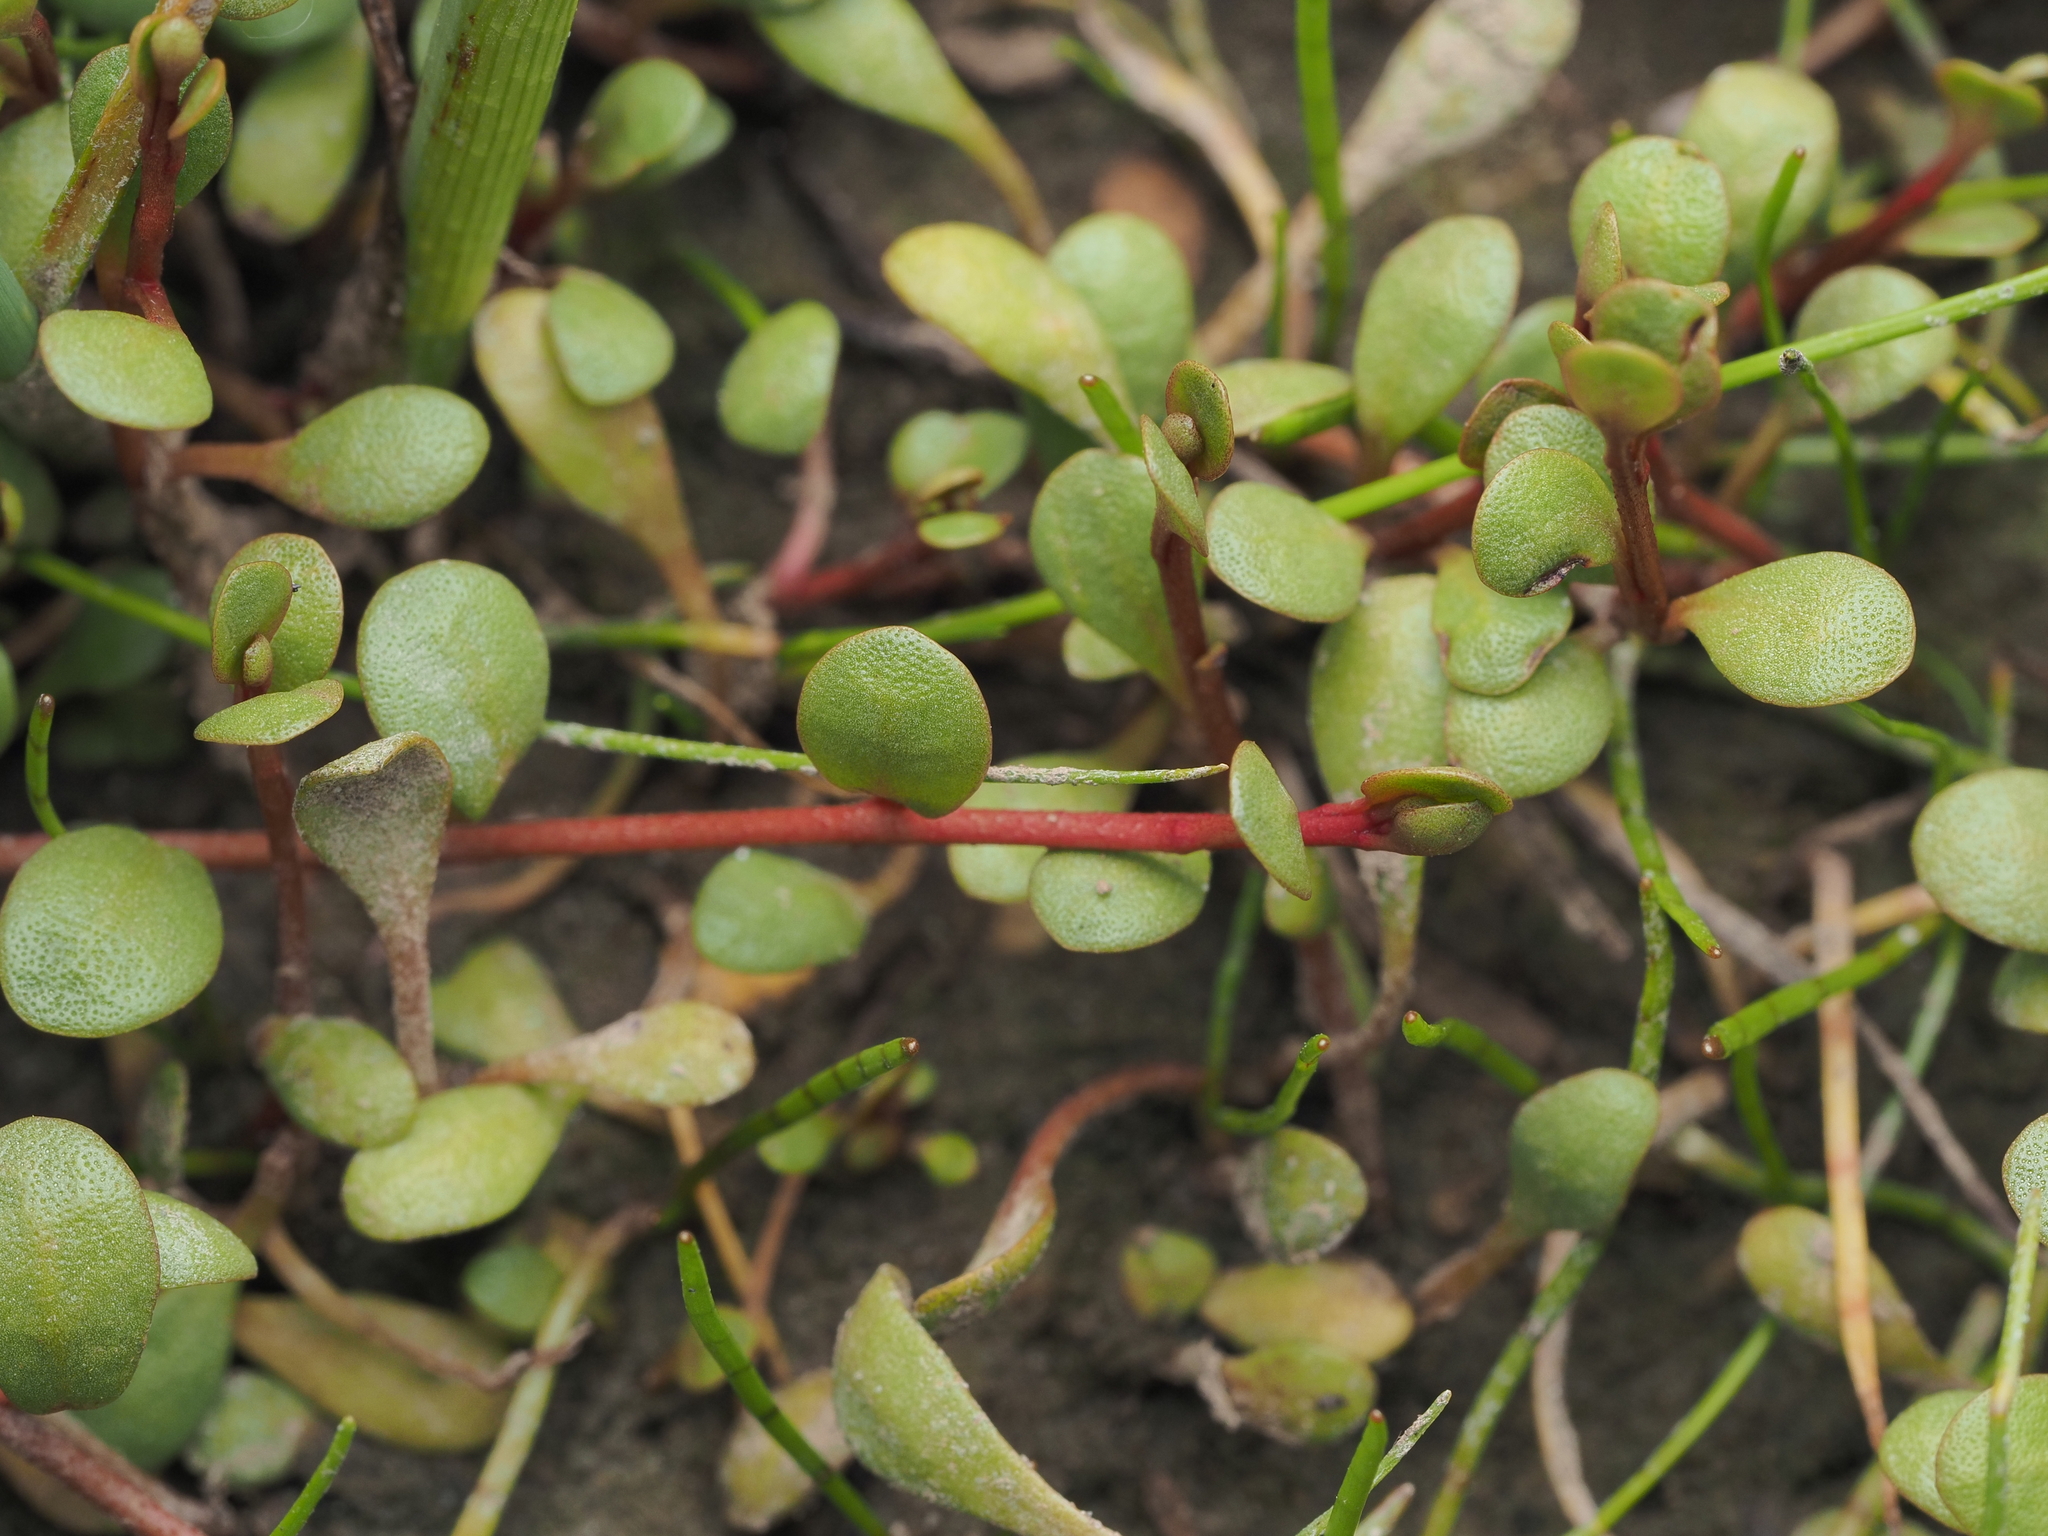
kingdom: Plantae
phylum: Tracheophyta
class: Magnoliopsida
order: Ericales
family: Primulaceae
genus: Samolus
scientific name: Samolus repens
